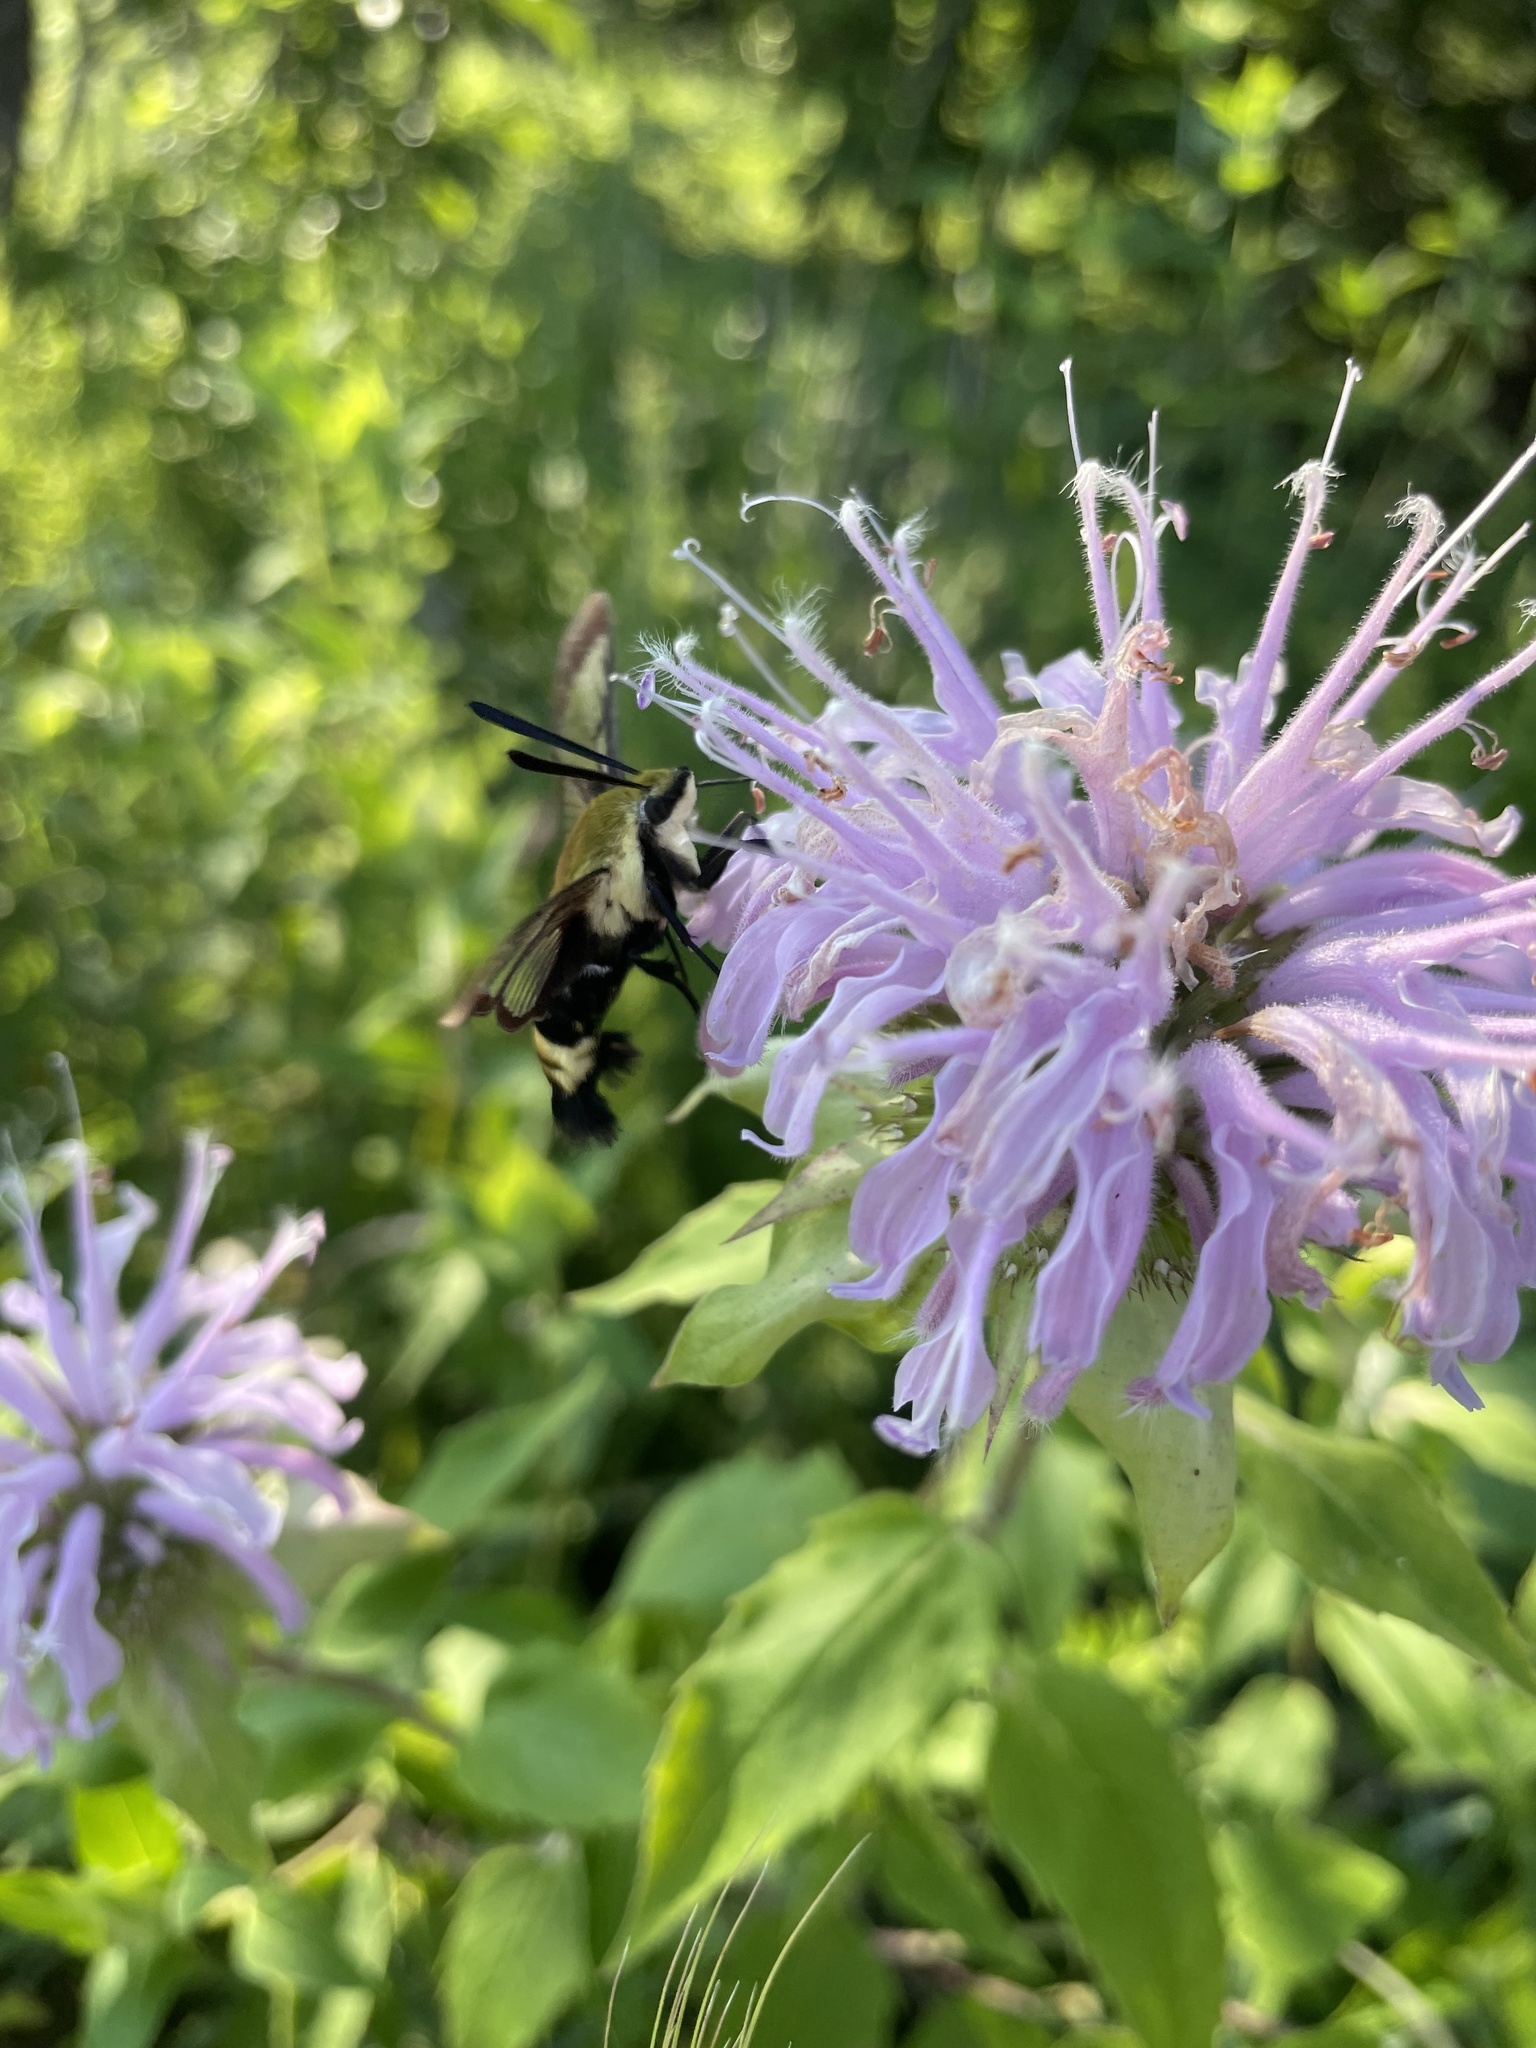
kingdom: Animalia
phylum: Arthropoda
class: Insecta
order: Lepidoptera
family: Sphingidae
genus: Hemaris
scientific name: Hemaris diffinis
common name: Bumblebee moth
